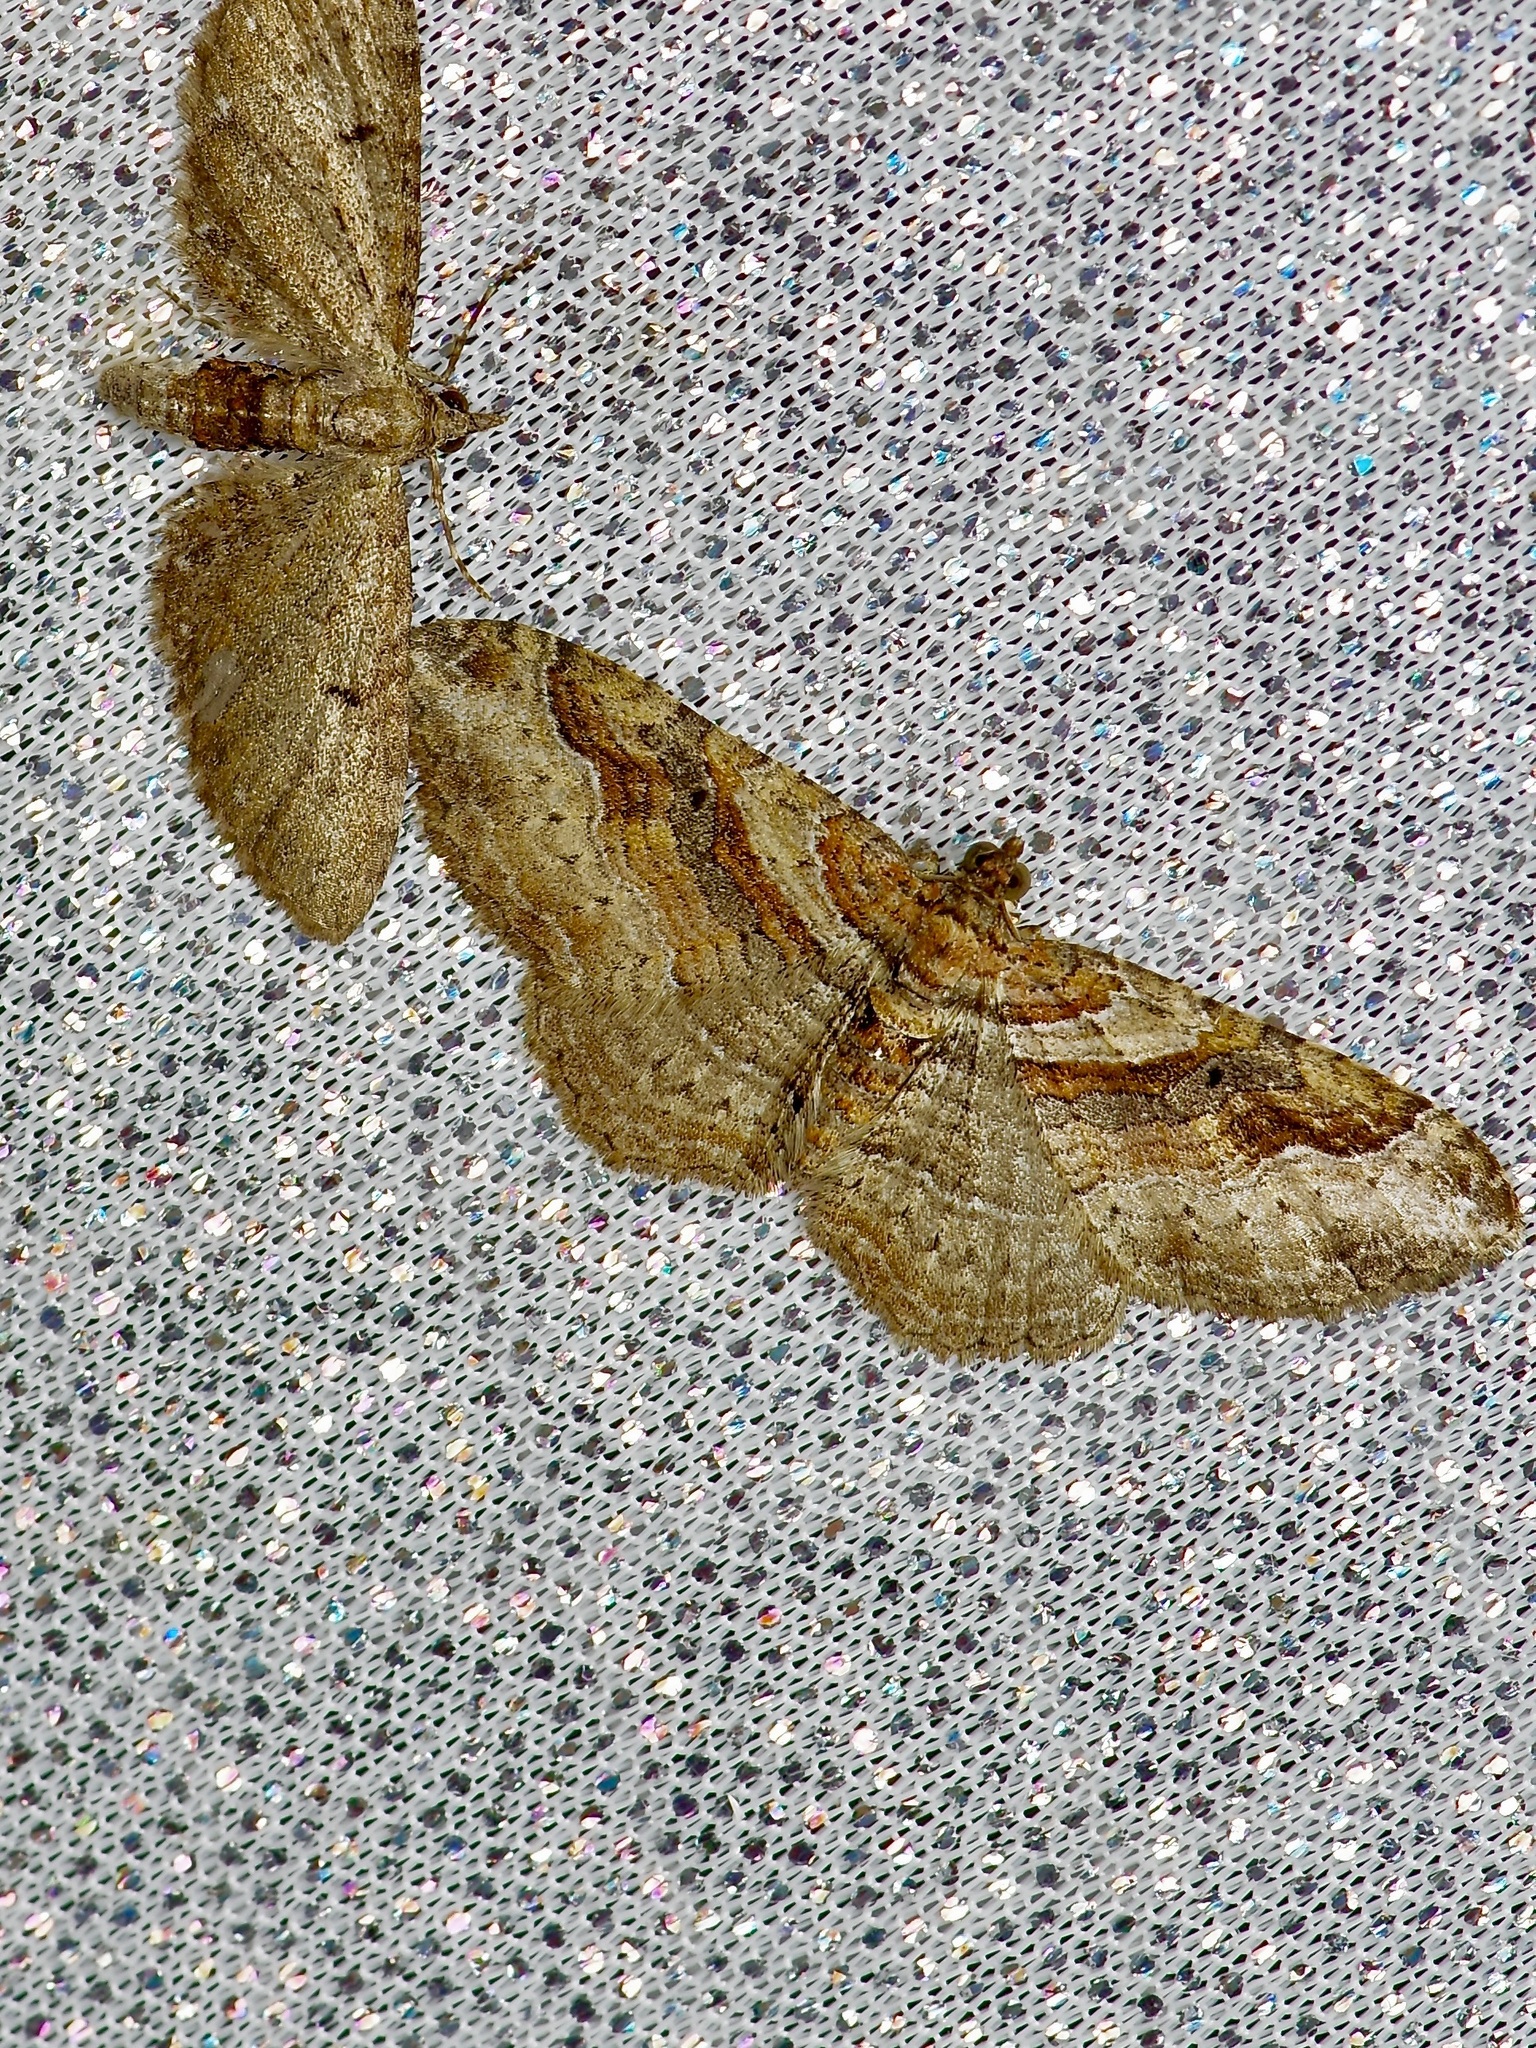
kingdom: Animalia
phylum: Arthropoda
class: Insecta
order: Lepidoptera
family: Geometridae
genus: Costaconvexa
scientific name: Costaconvexa centrostrigaria
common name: Bent-line carpet
